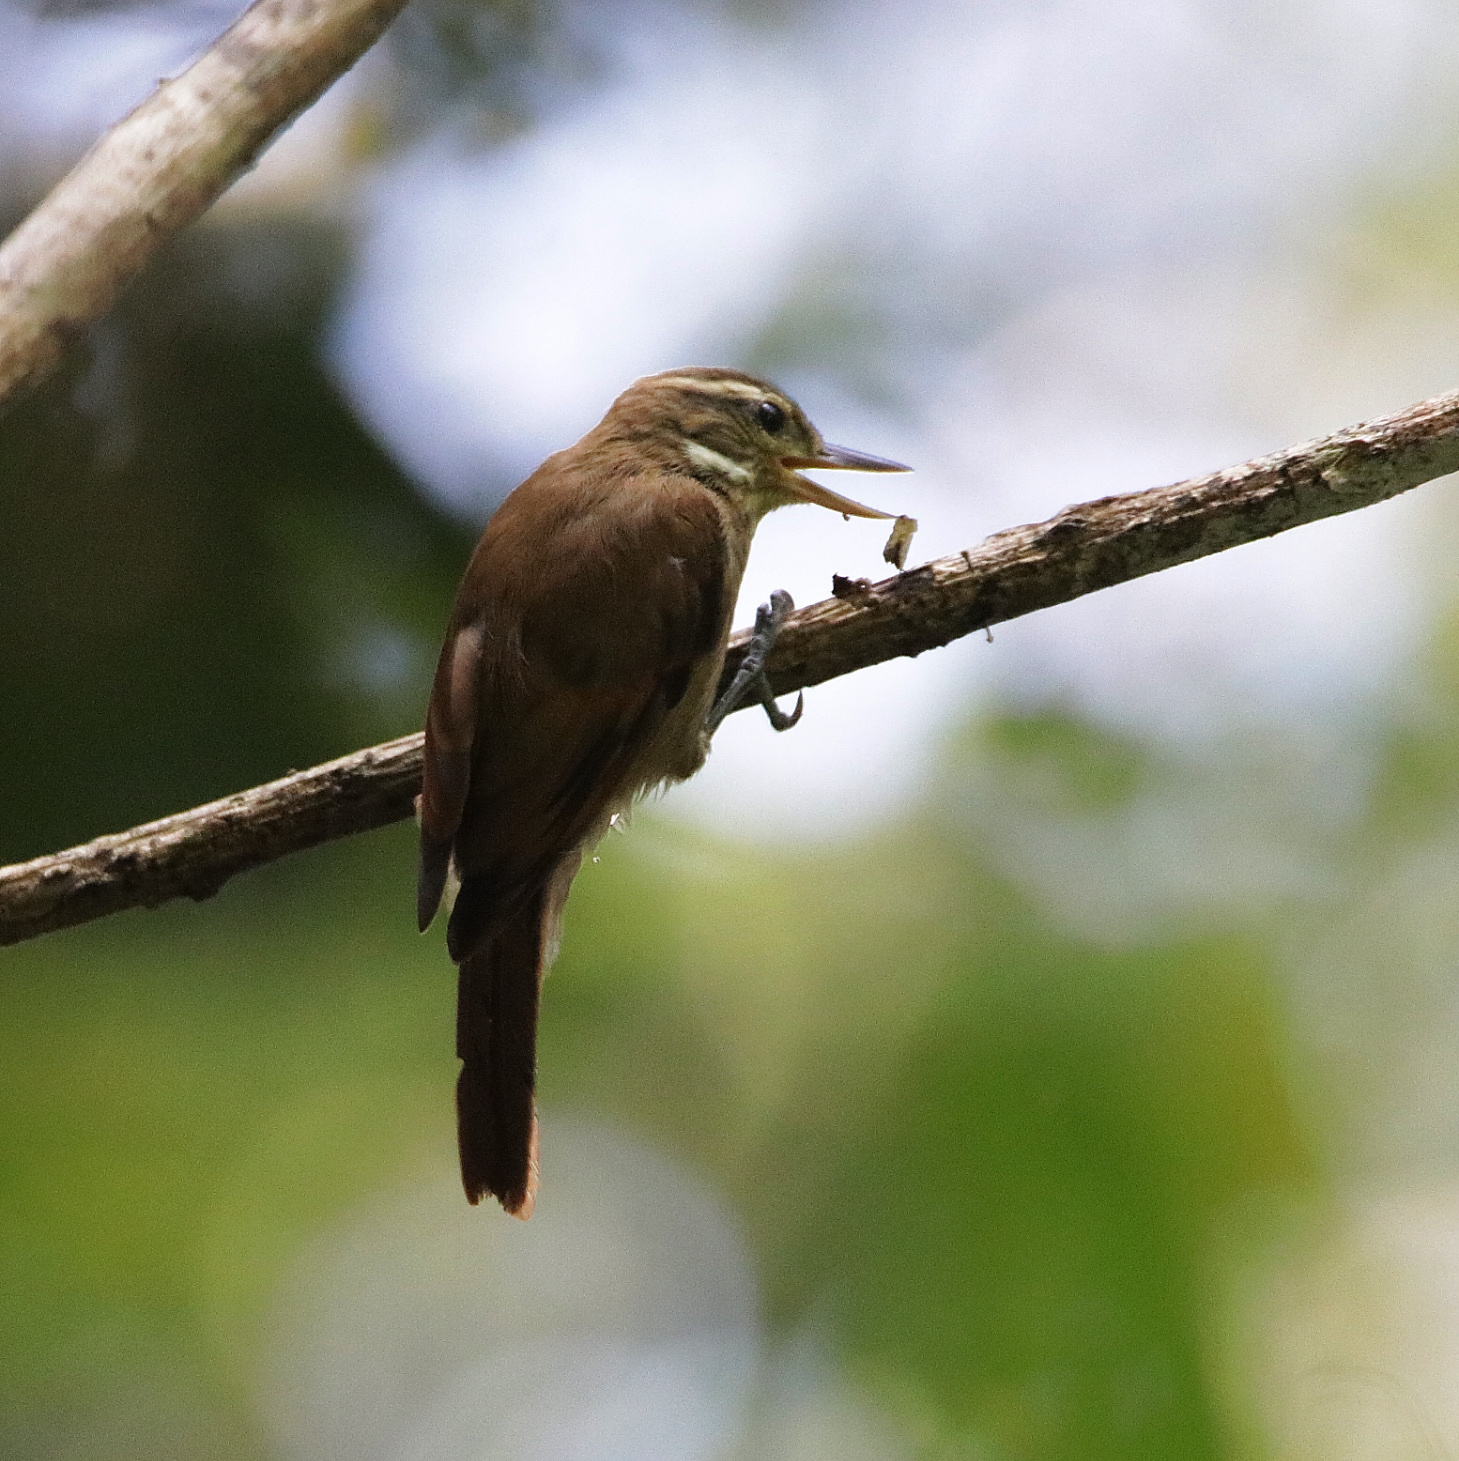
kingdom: Animalia
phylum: Chordata
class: Aves
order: Passeriformes
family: Furnariidae
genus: Xenops
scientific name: Xenops minutus
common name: Plain xenops
